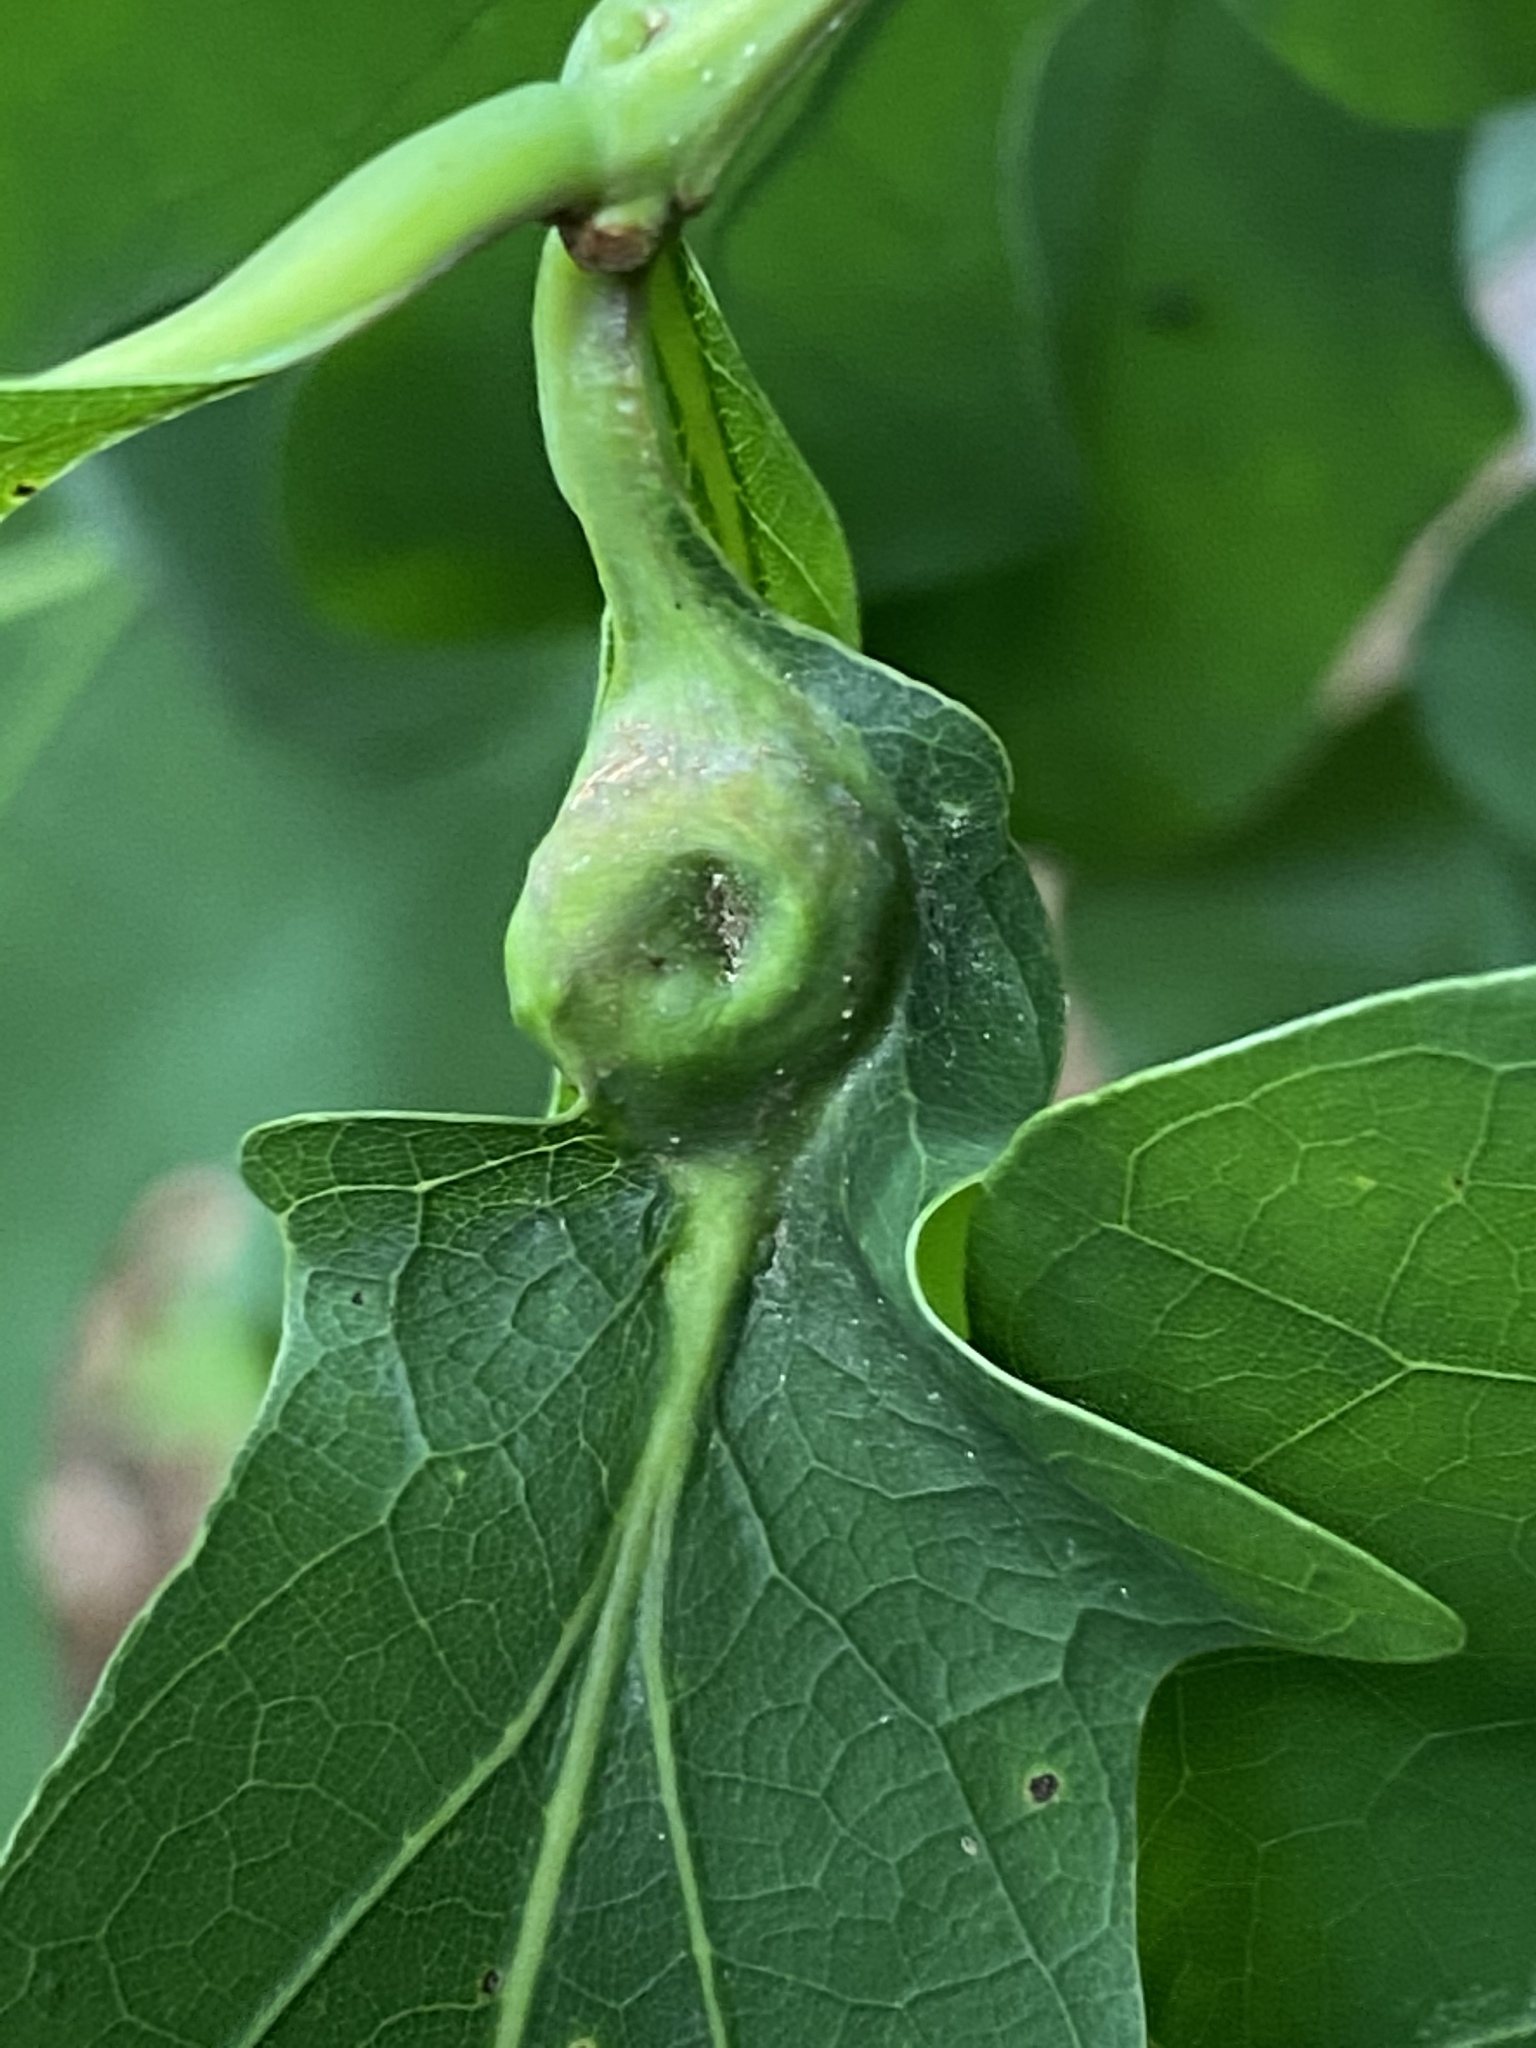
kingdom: Animalia
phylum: Arthropoda
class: Insecta
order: Hymenoptera
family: Cynipidae
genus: Andricus
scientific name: Andricus
